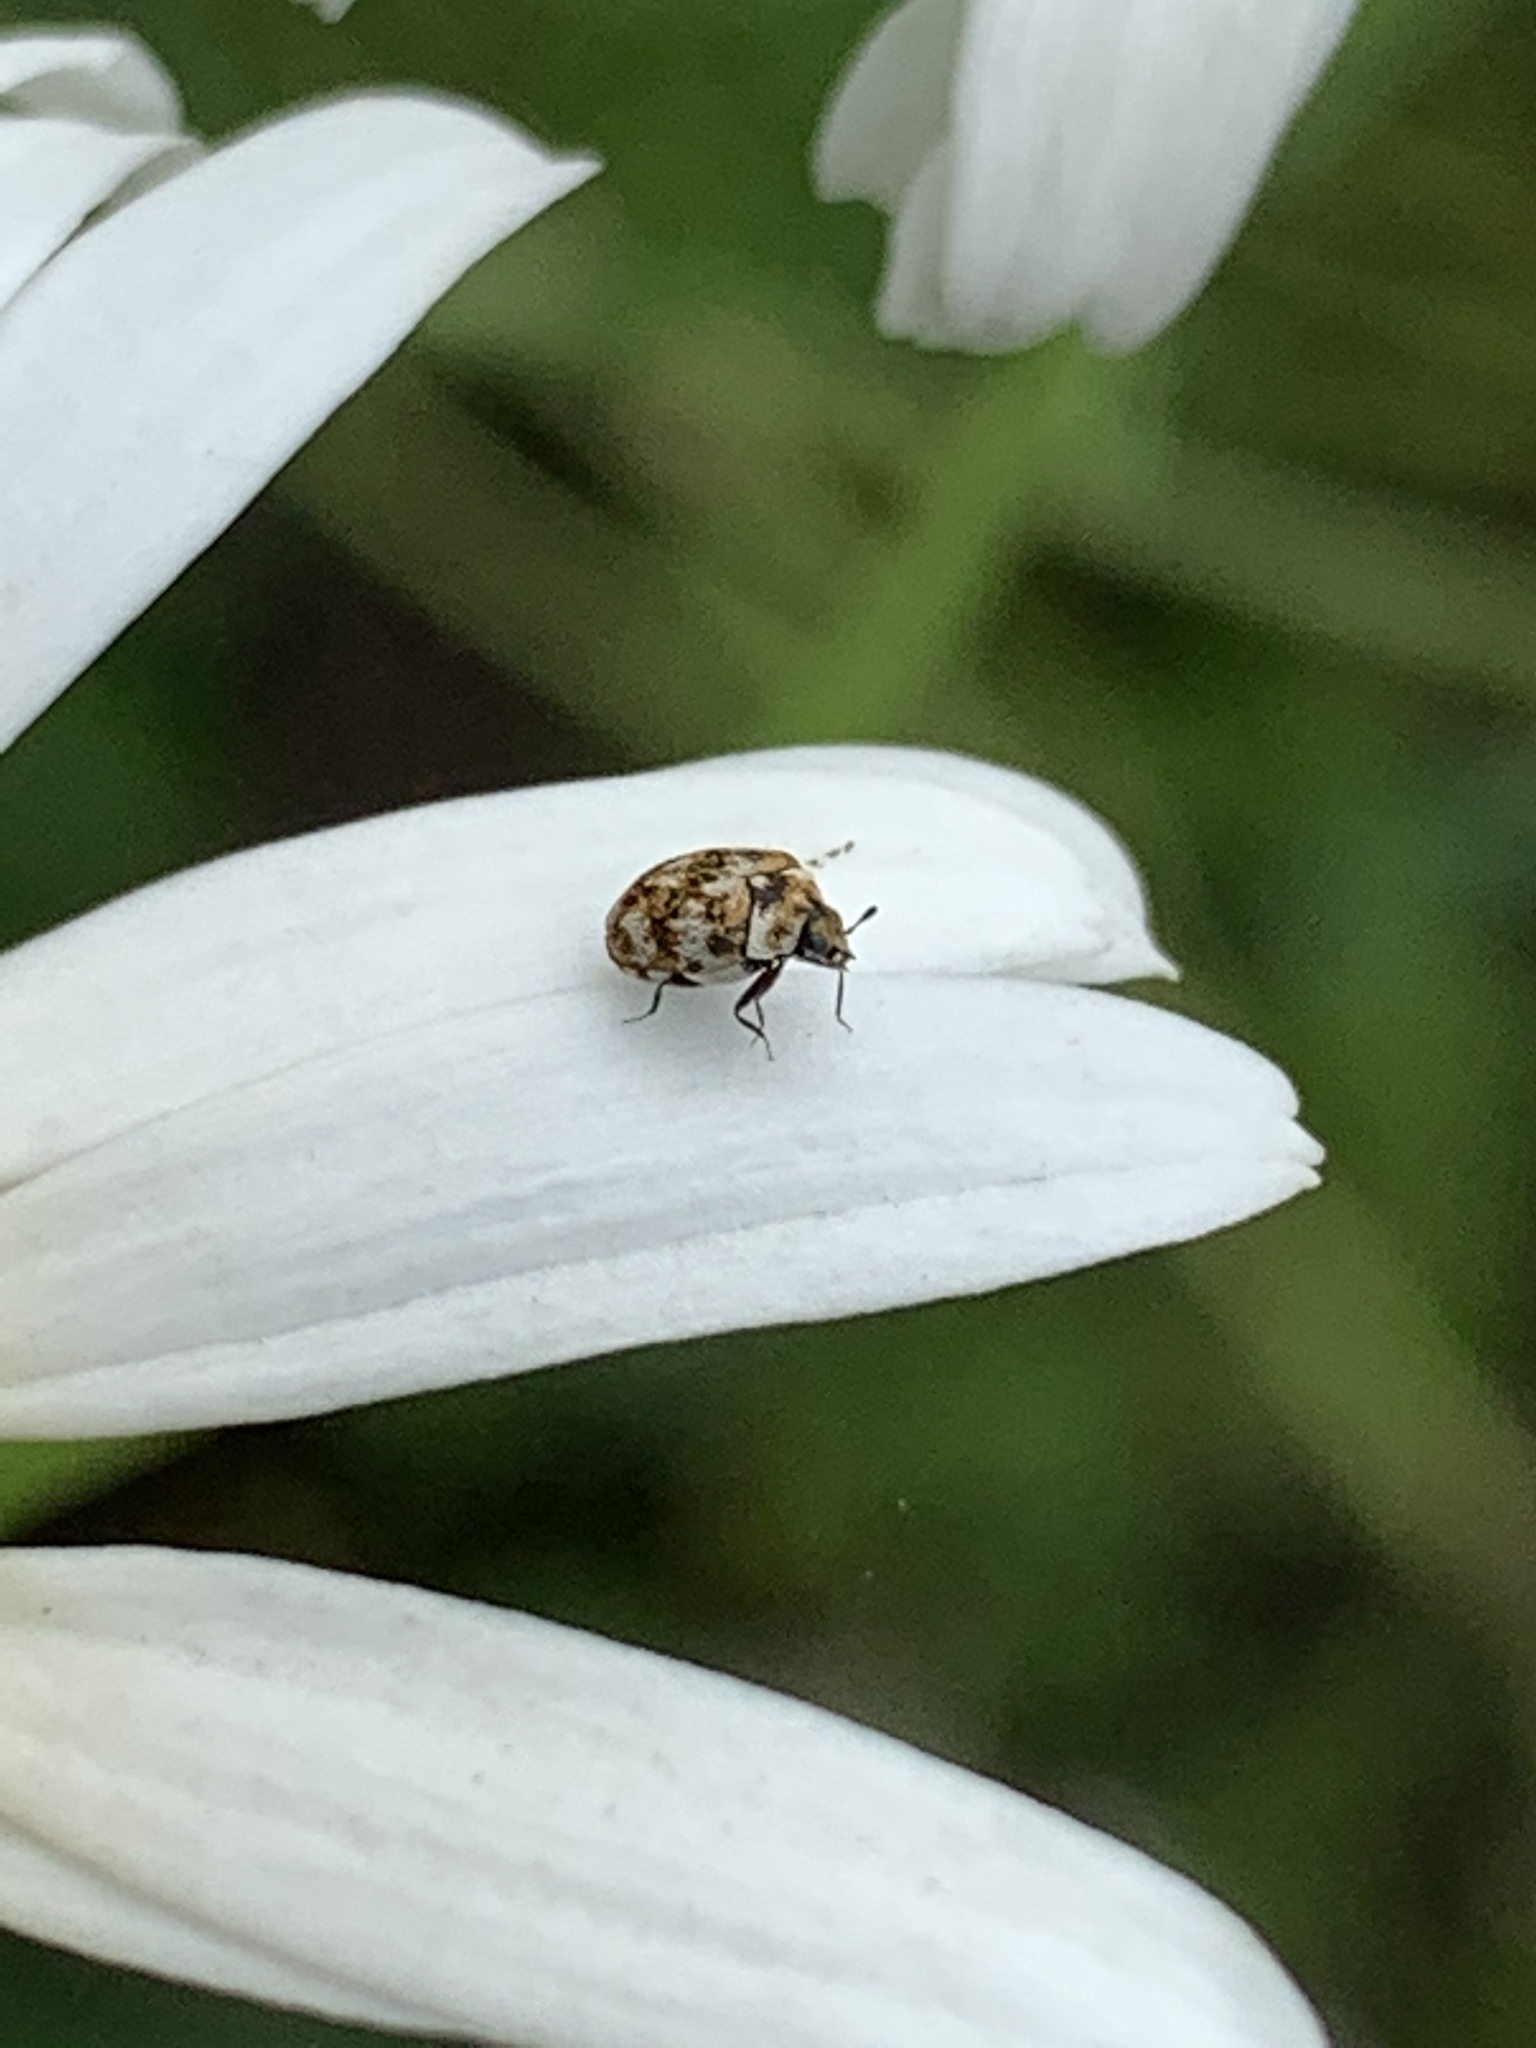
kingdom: Animalia
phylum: Arthropoda
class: Insecta
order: Coleoptera
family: Dermestidae
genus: Anthrenus
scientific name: Anthrenus verbasci
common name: Varied carpet beetle
